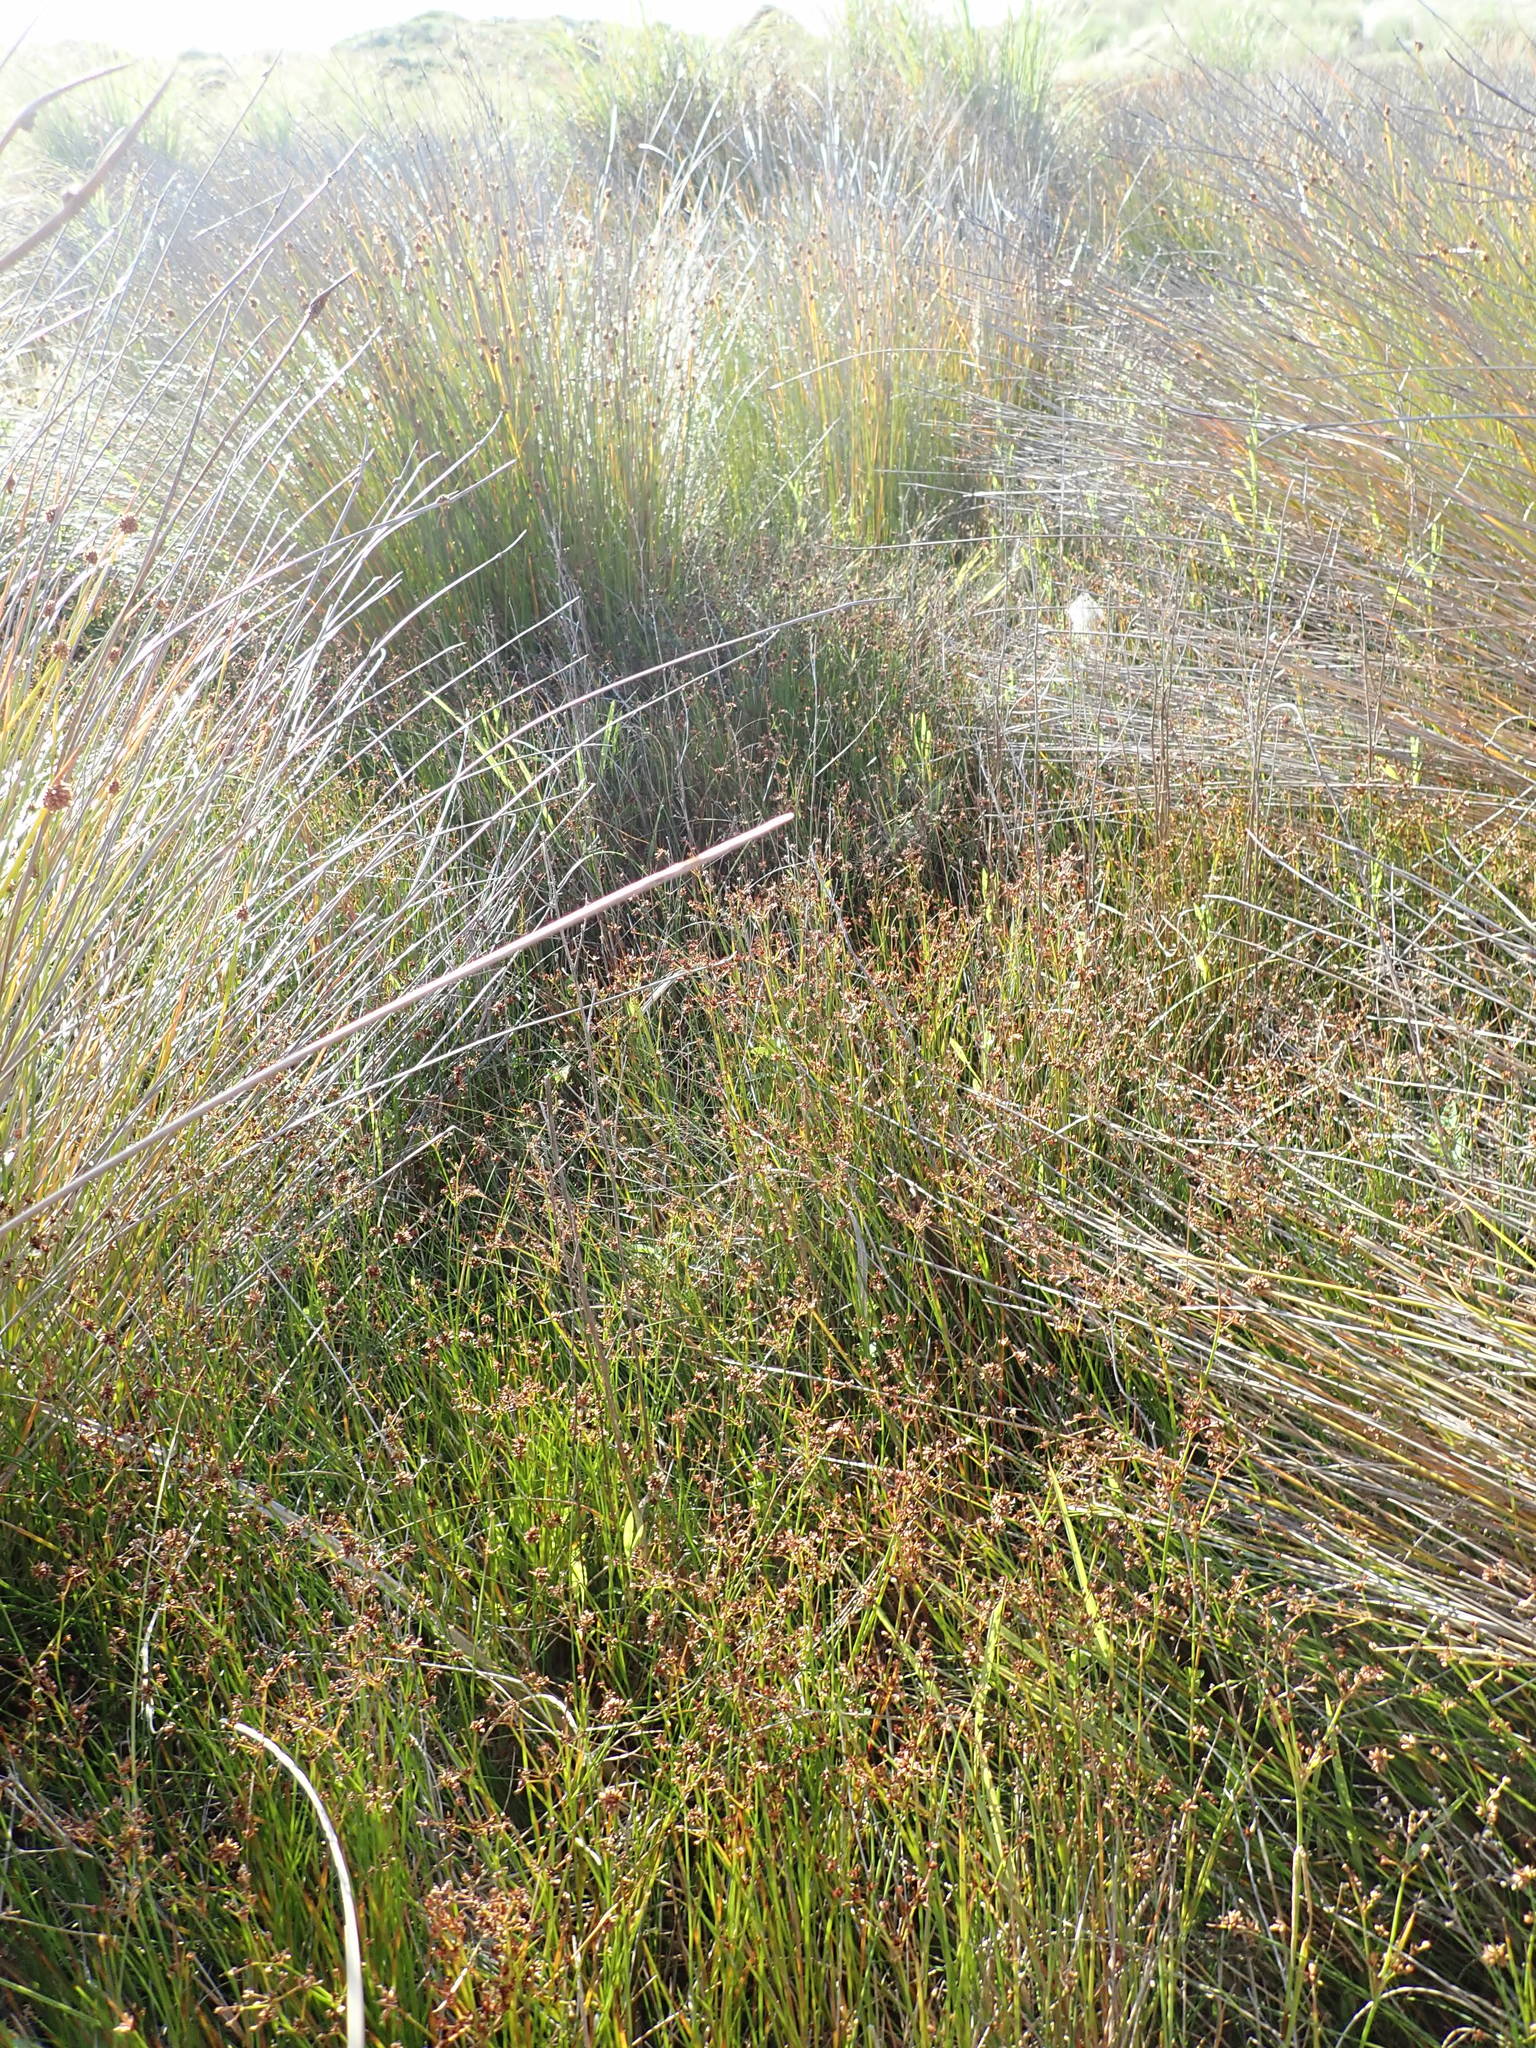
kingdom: Plantae
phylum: Tracheophyta
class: Liliopsida
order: Poales
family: Juncaceae
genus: Juncus
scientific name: Juncus articulatus
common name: Jointed rush
